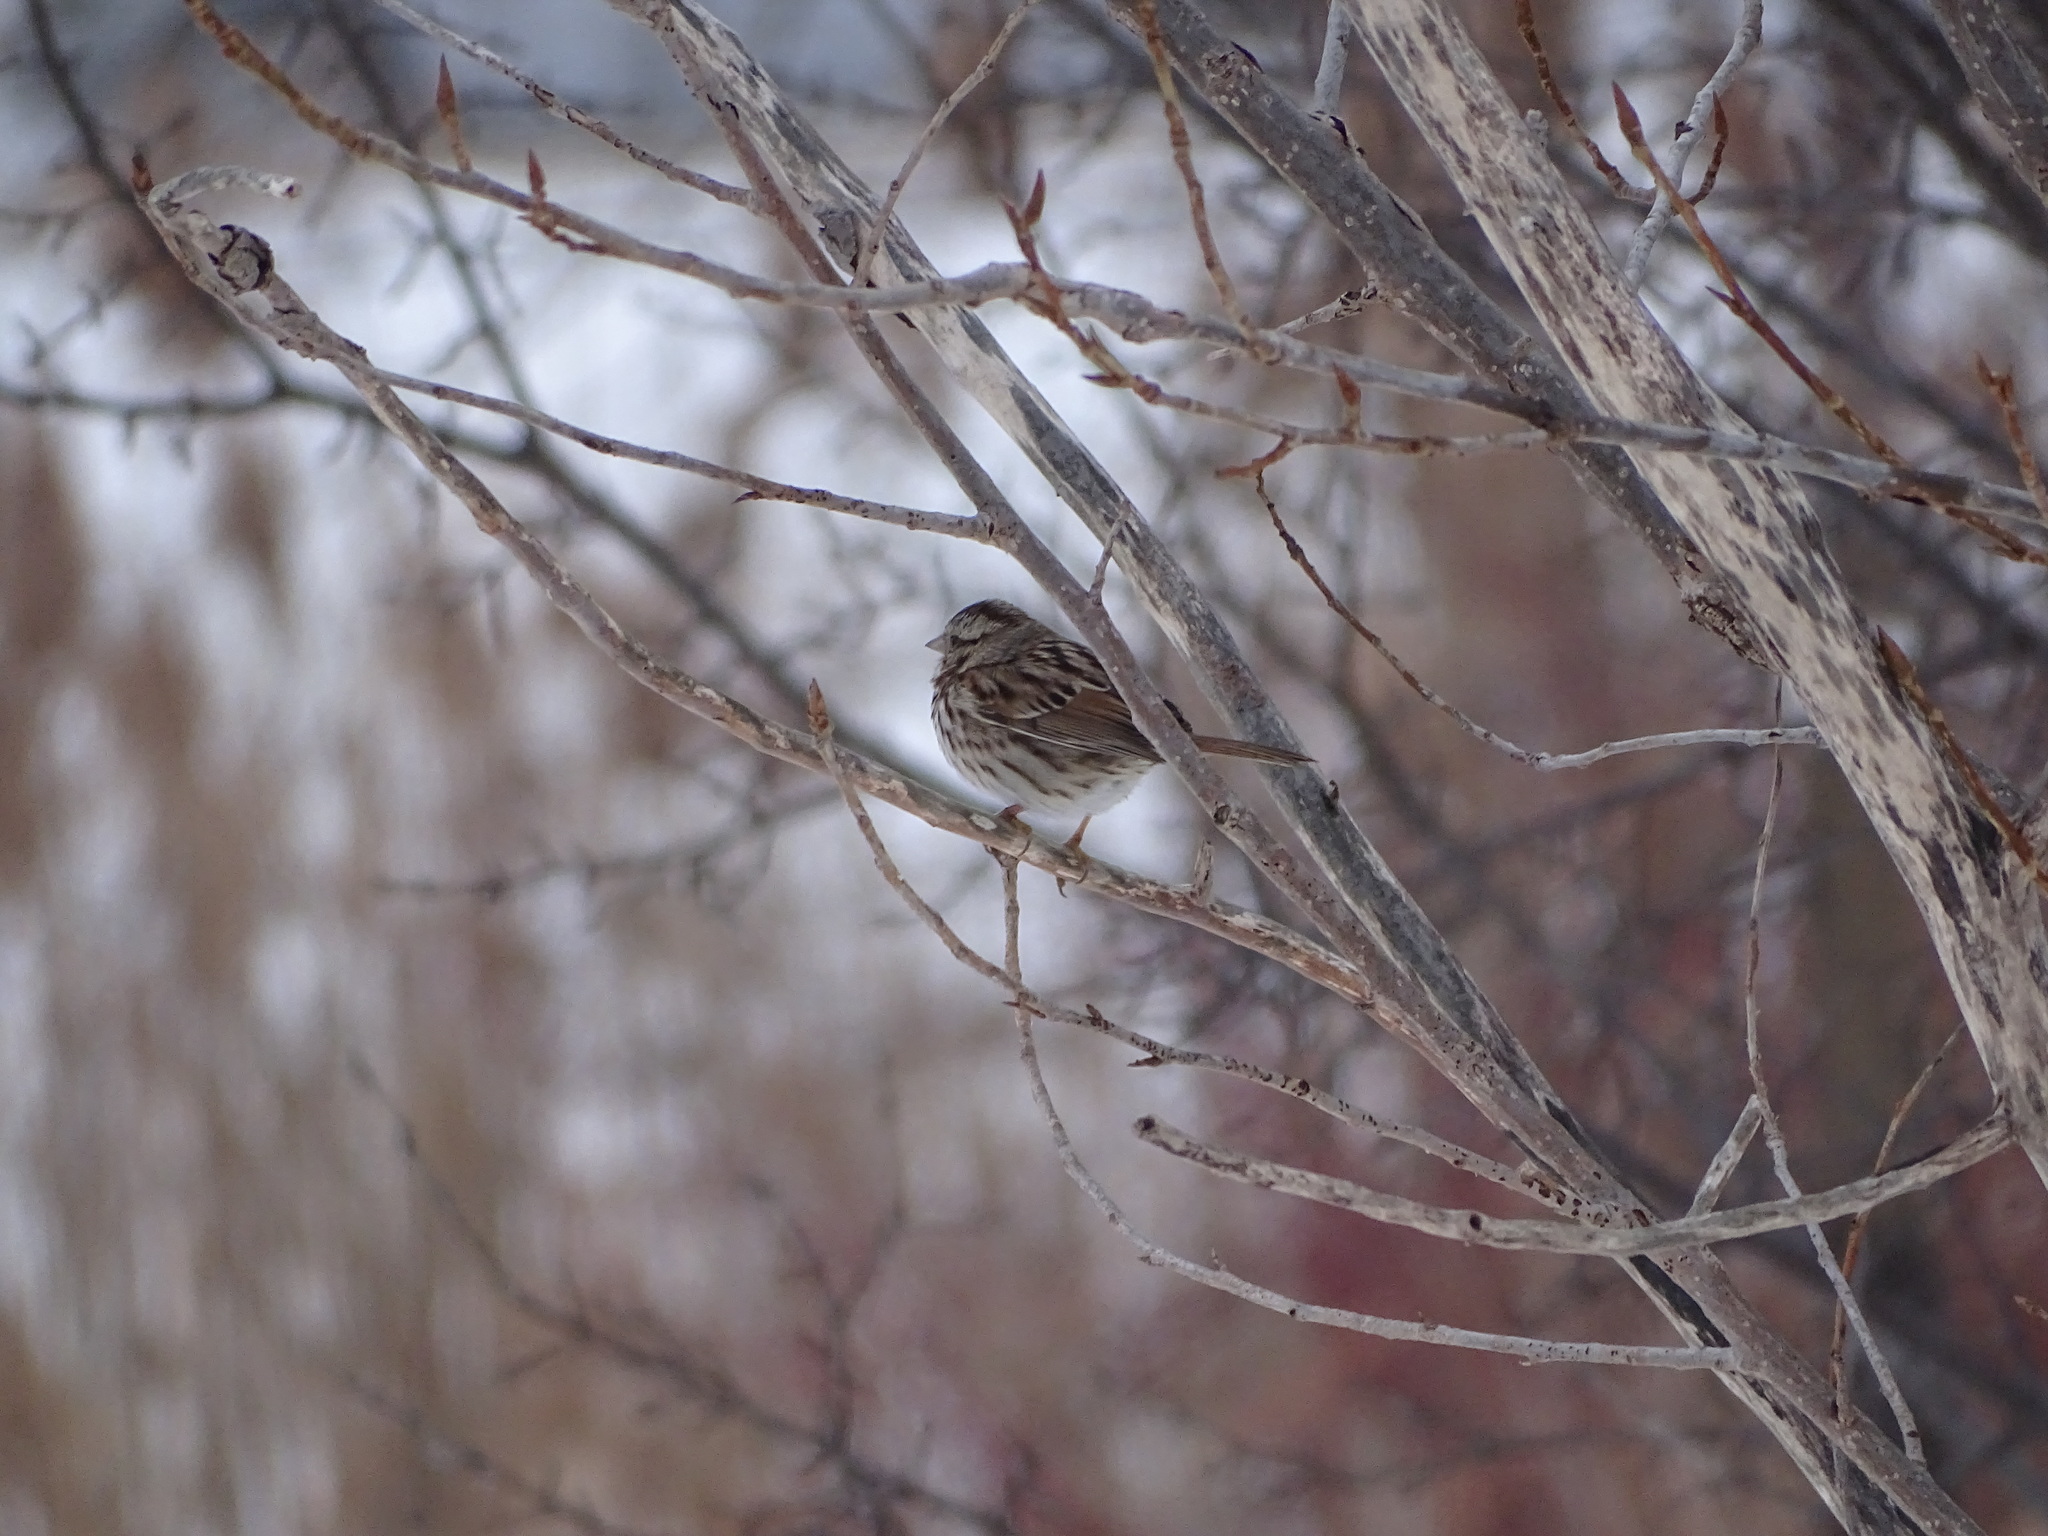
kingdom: Animalia
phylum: Chordata
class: Aves
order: Passeriformes
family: Passerellidae
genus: Melospiza
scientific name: Melospiza melodia
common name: Song sparrow
